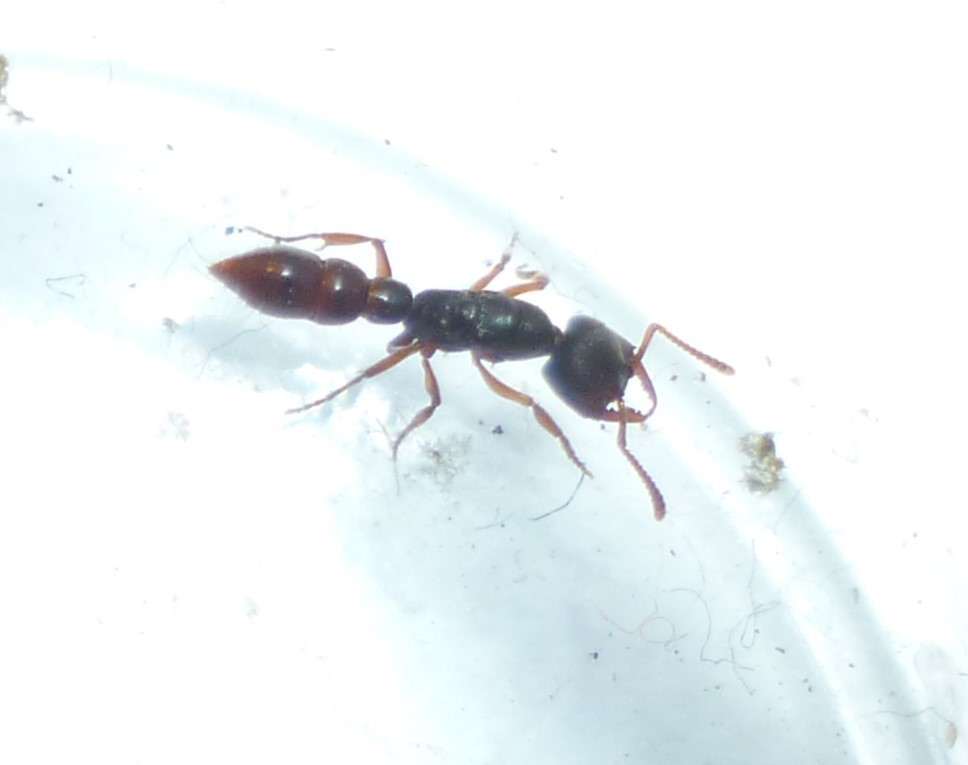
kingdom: Animalia
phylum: Arthropoda
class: Insecta
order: Hymenoptera
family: Formicidae
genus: Stigmatomma
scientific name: Stigmatomma pallipes
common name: Vampire ant
